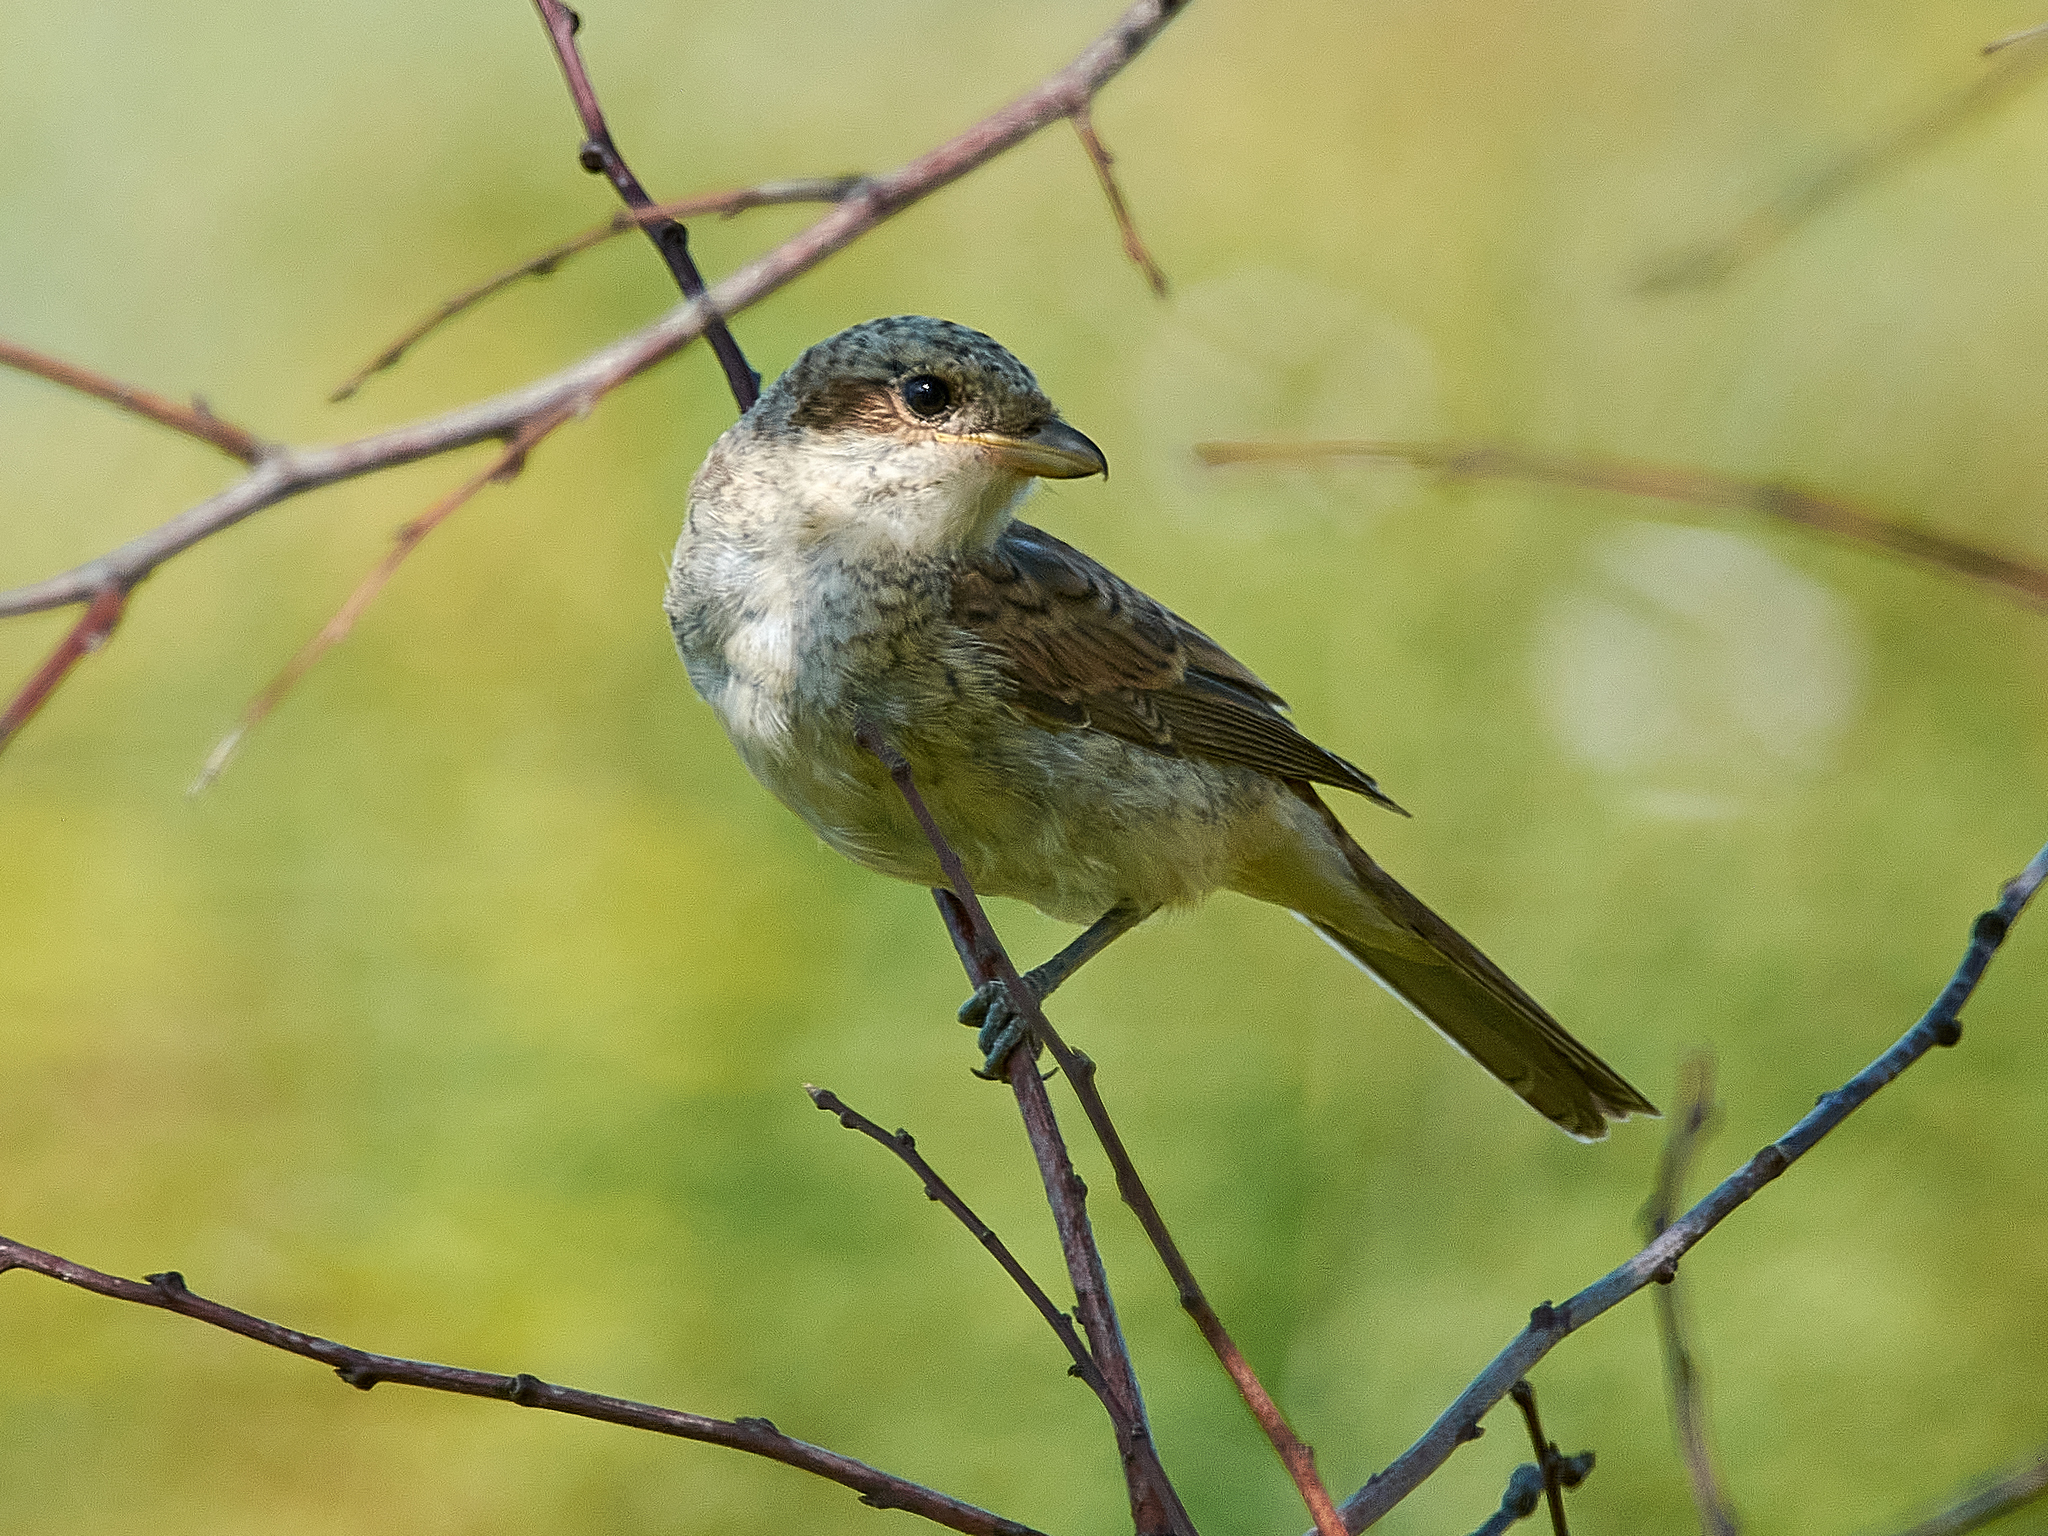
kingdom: Animalia
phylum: Chordata
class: Aves
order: Passeriformes
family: Laniidae
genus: Lanius
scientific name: Lanius collurio
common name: Red-backed shrike
